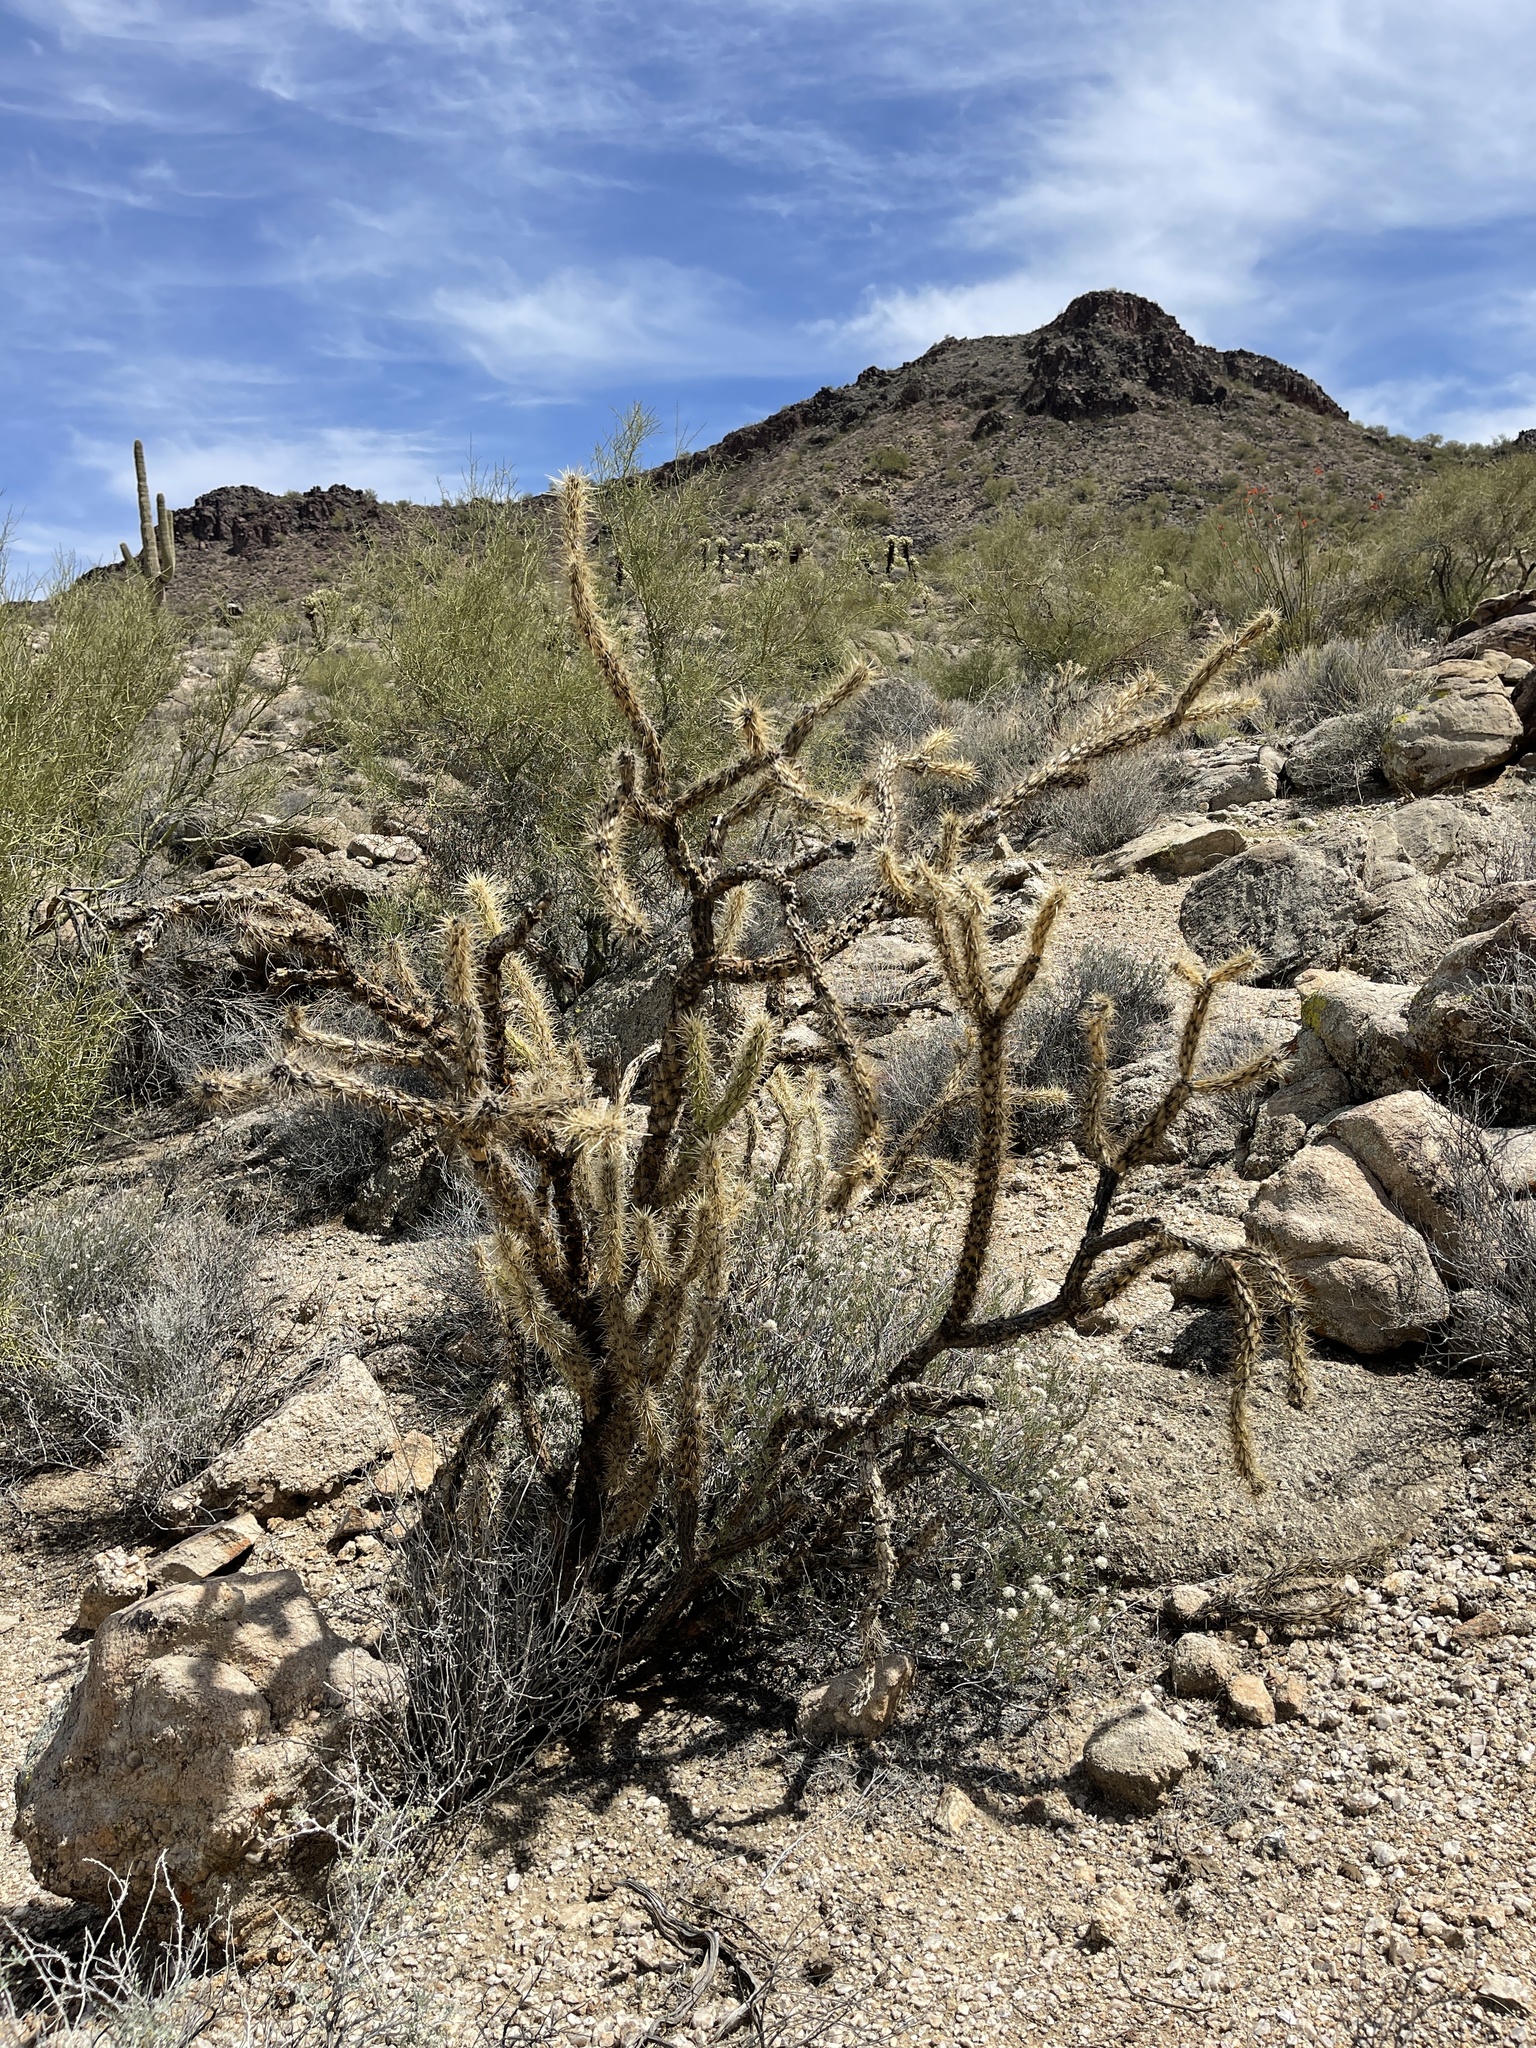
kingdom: Plantae
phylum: Tracheophyta
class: Magnoliopsida
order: Caryophyllales
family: Cactaceae
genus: Cylindropuntia
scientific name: Cylindropuntia acanthocarpa
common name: Buckhorn cholla
